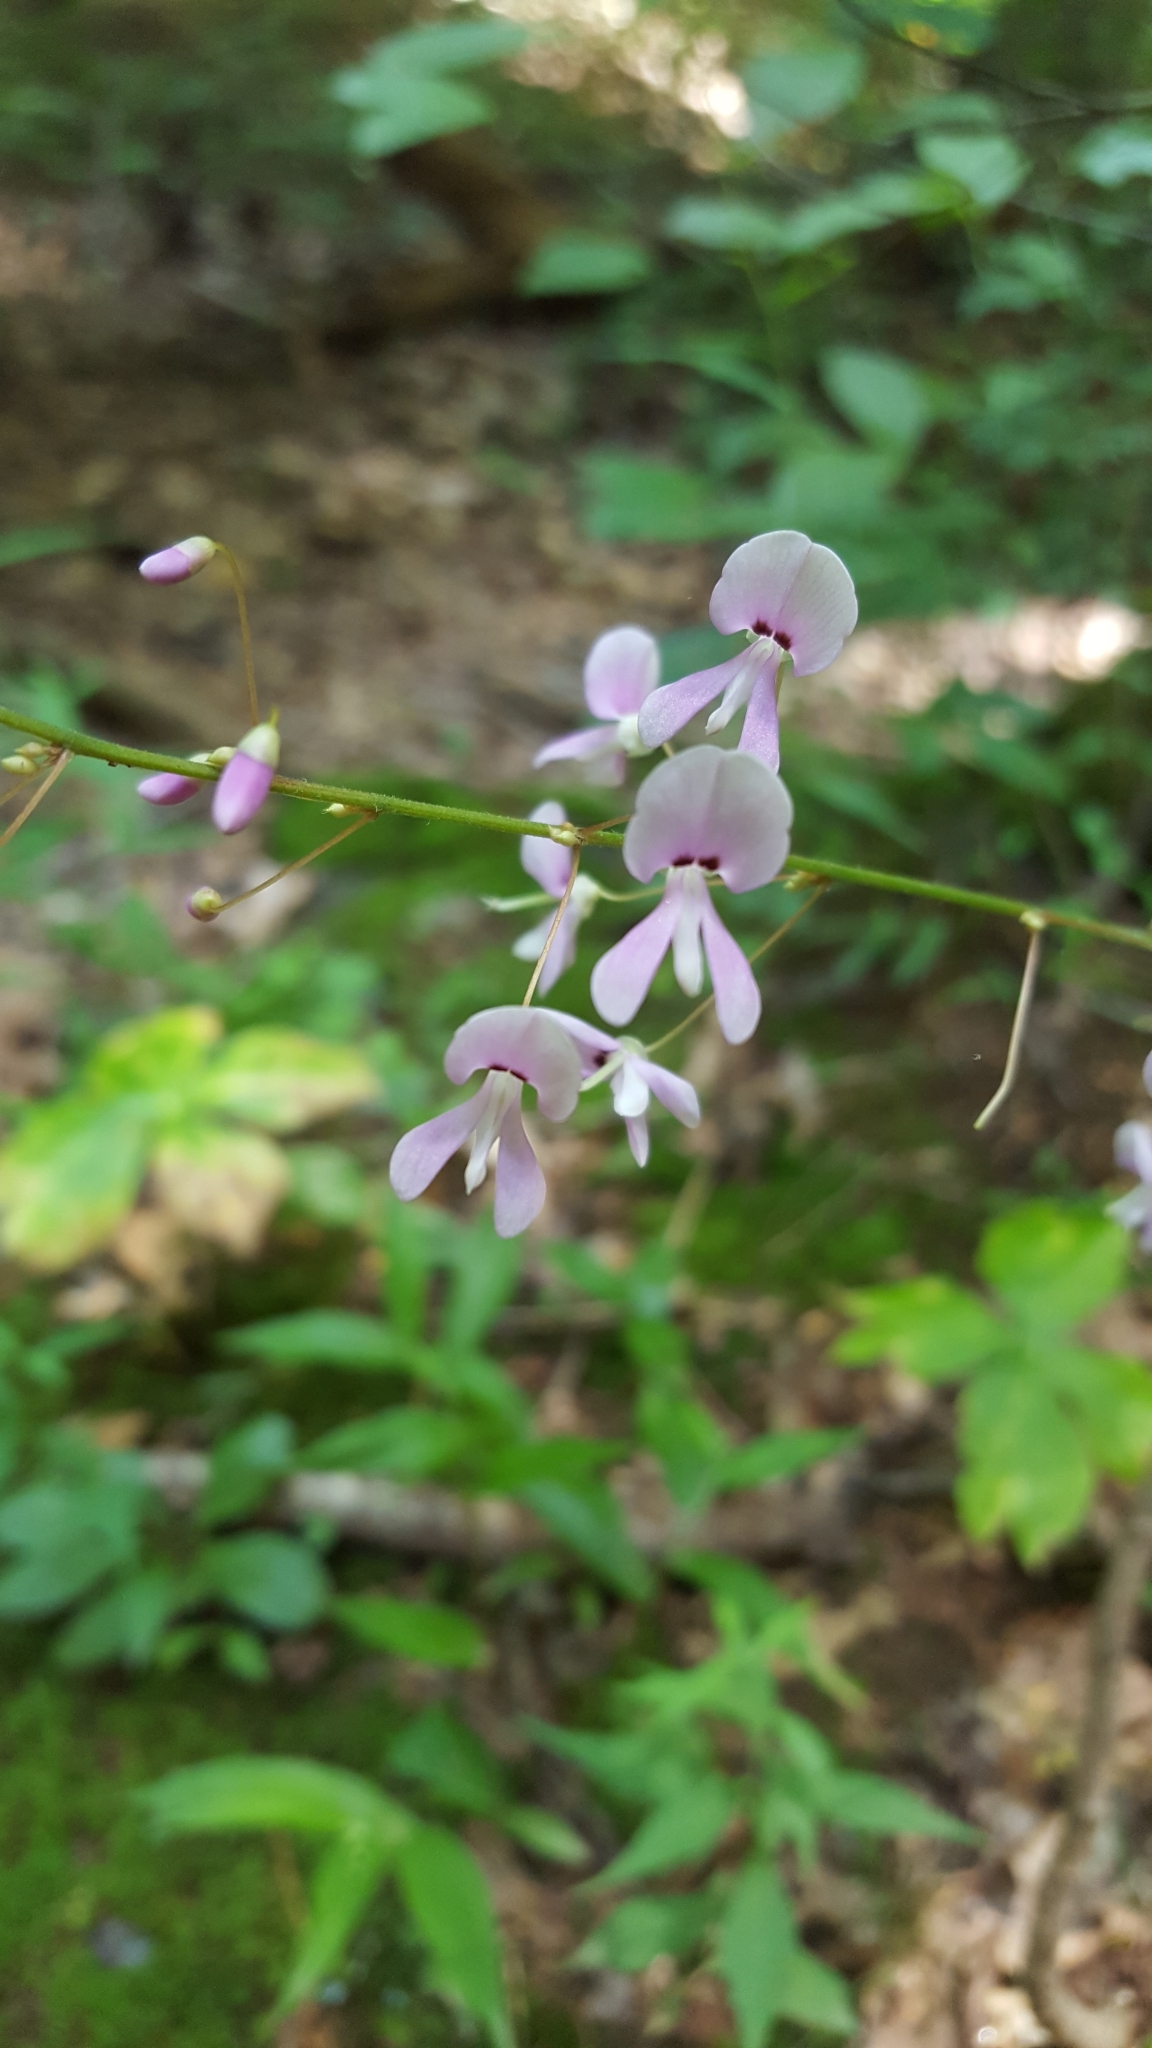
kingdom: Plantae
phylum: Tracheophyta
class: Magnoliopsida
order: Fabales
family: Fabaceae
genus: Hylodesmum
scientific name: Hylodesmum nudiflorum
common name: Bare-stemmed tick-trefoil
